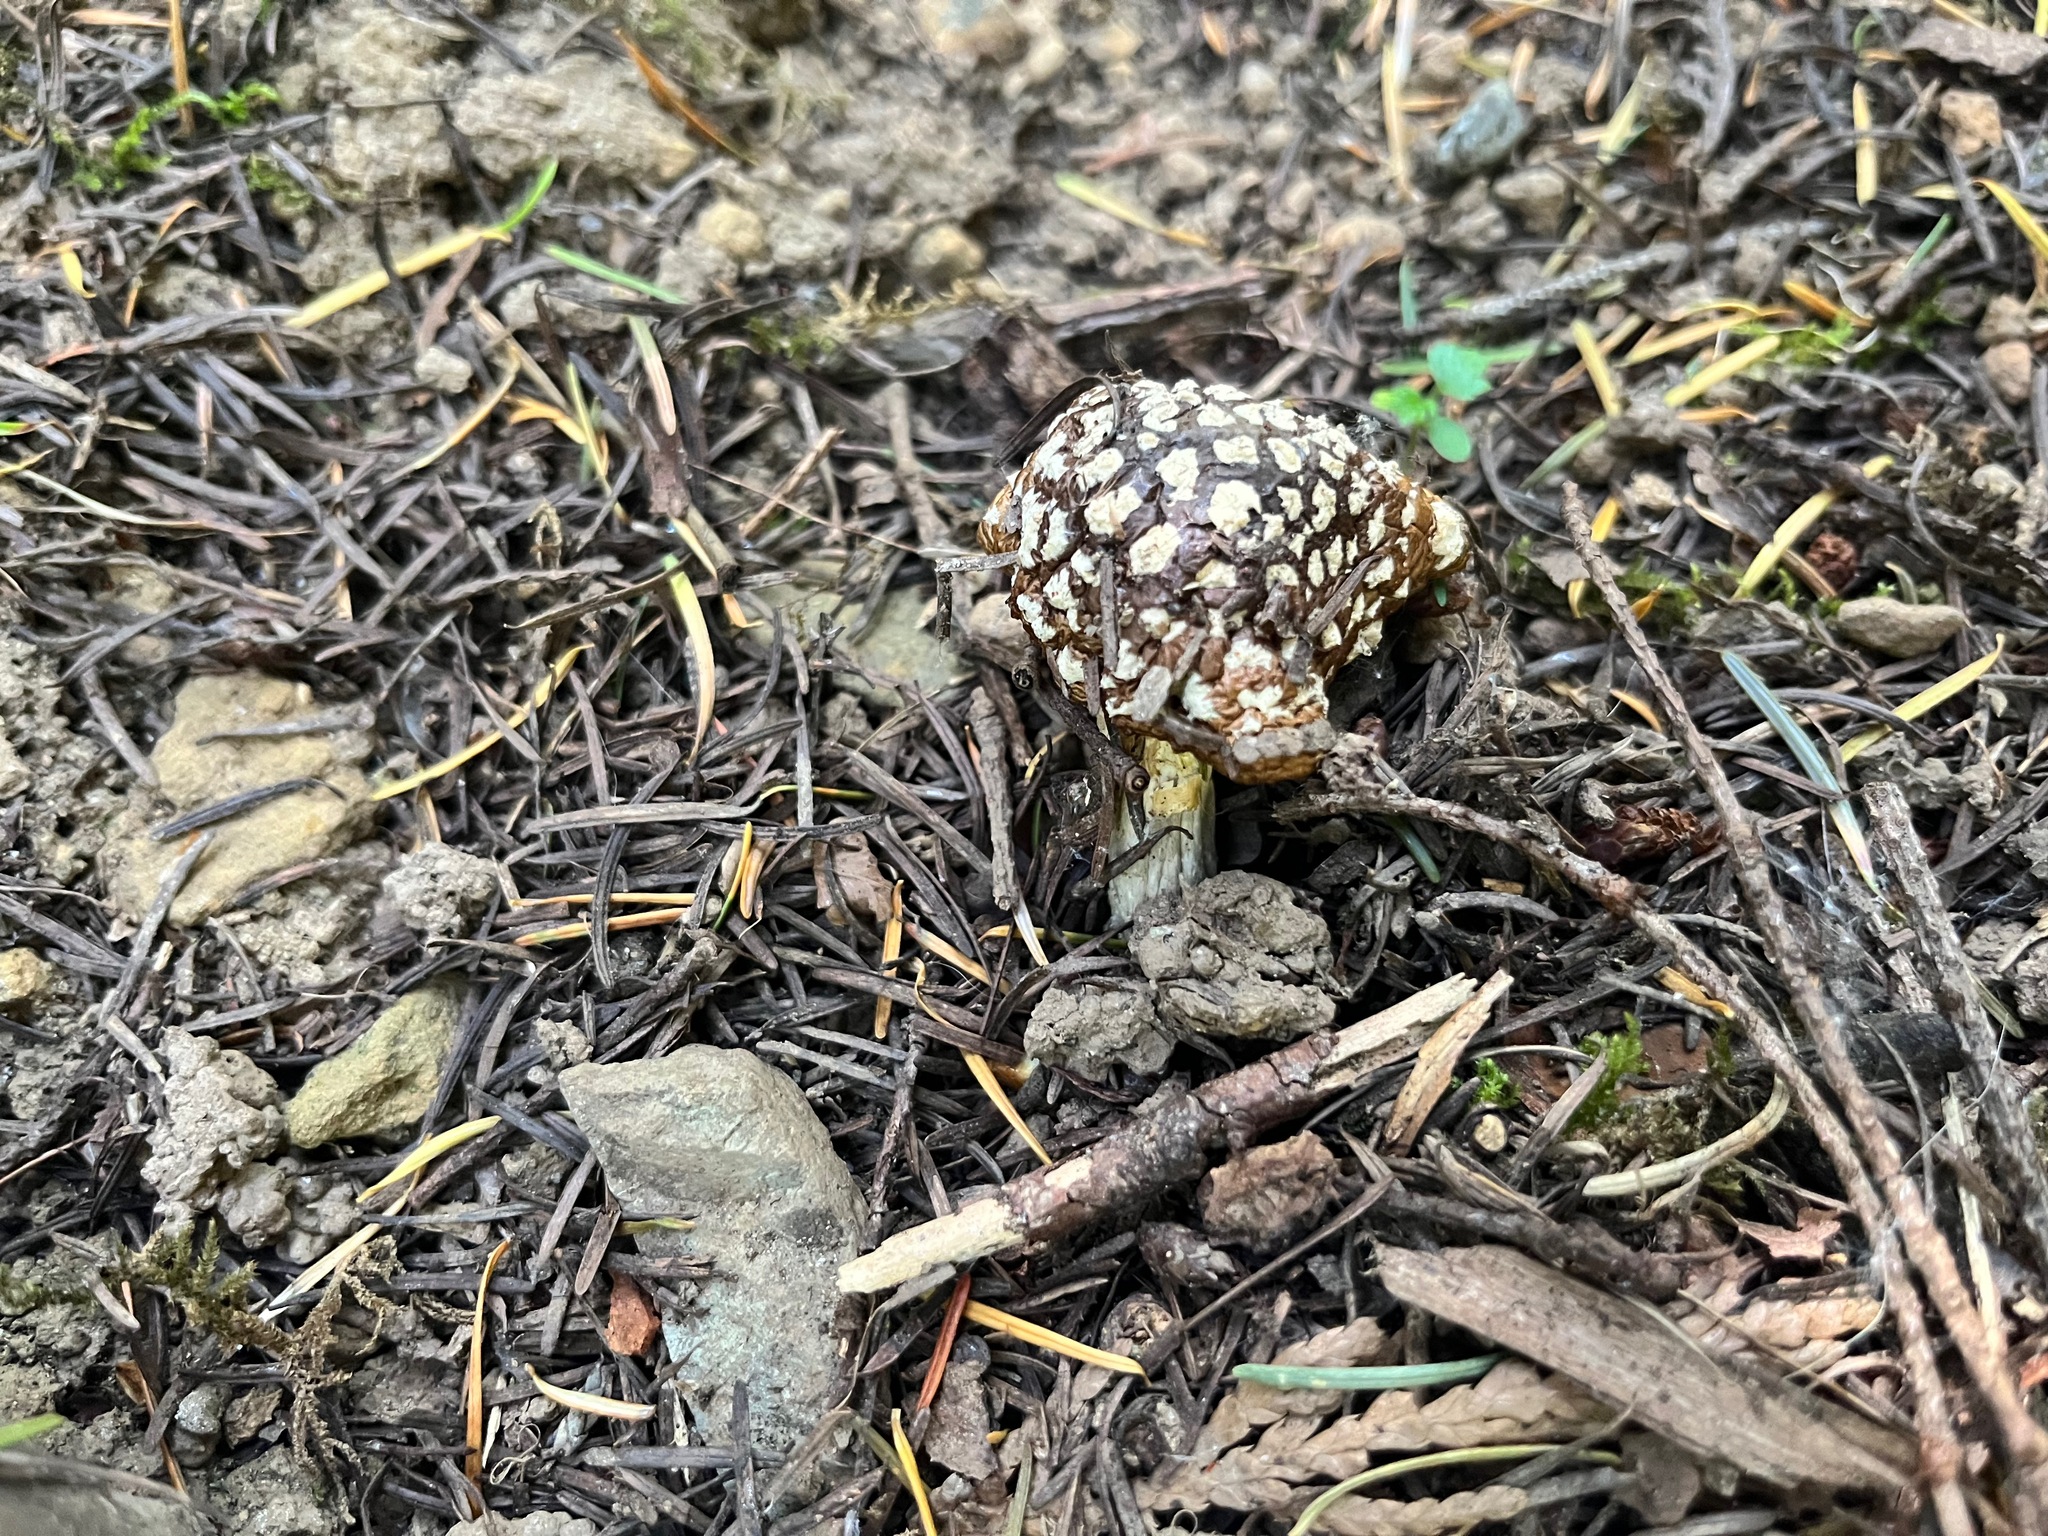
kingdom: Fungi
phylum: Basidiomycota
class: Agaricomycetes
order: Agaricales
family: Amanitaceae
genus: Amanita
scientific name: Amanita pantherinoides
